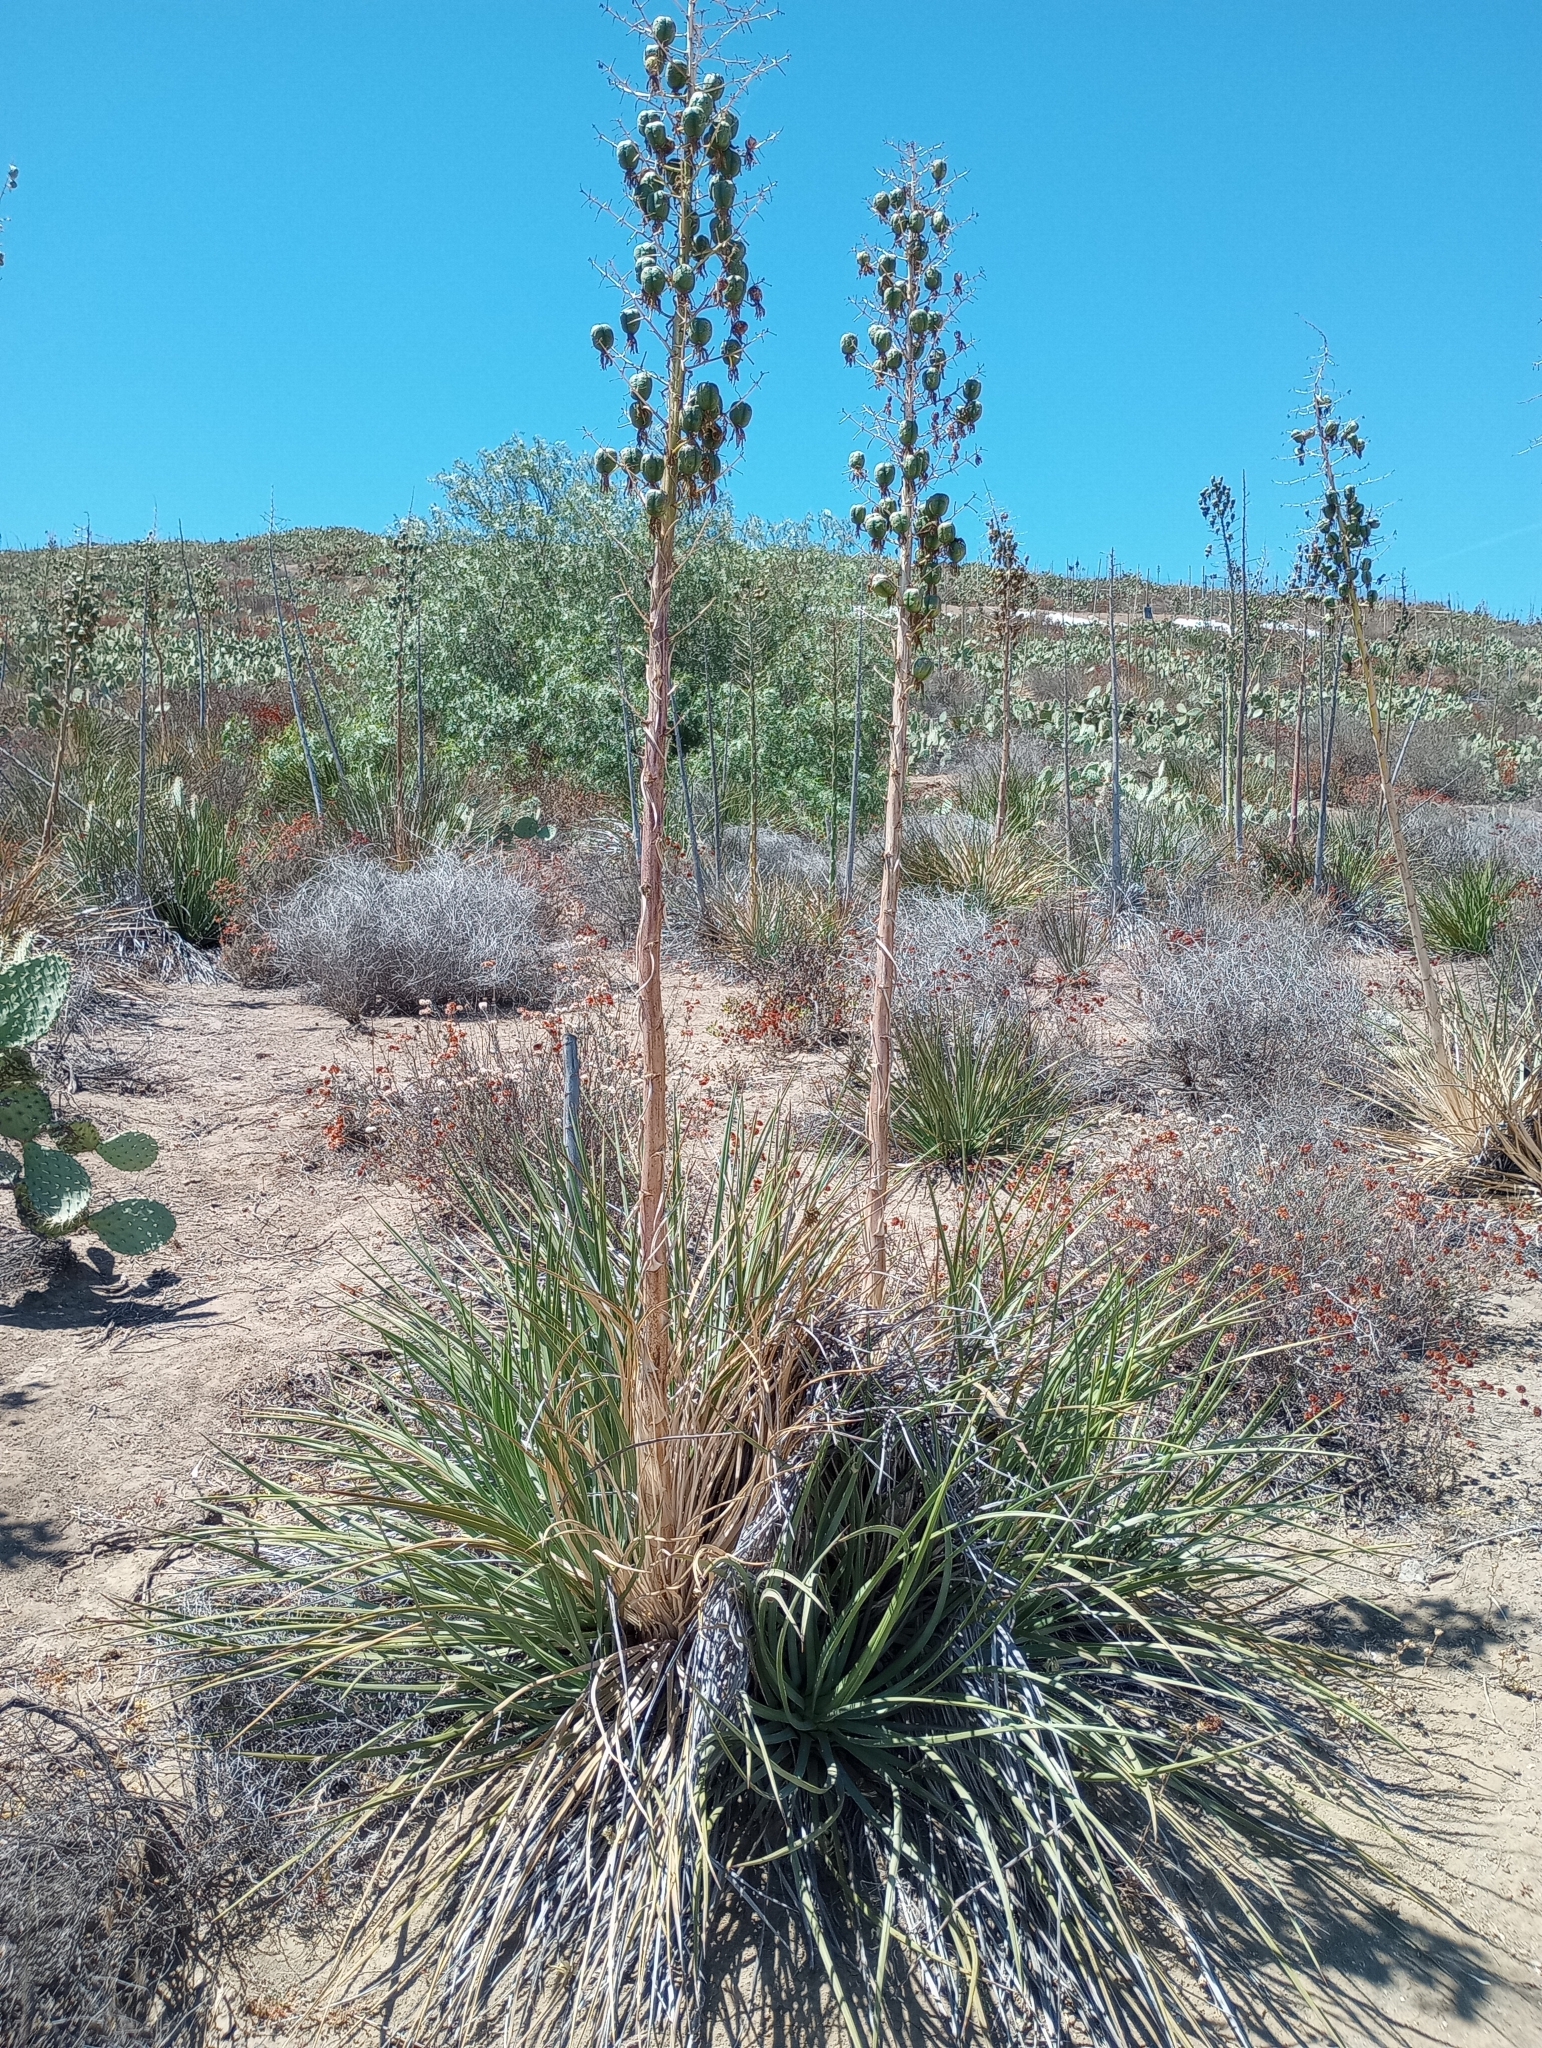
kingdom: Plantae
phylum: Tracheophyta
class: Liliopsida
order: Asparagales
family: Asparagaceae
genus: Hesperoyucca
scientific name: Hesperoyucca whipplei
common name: Our lord's-candle
